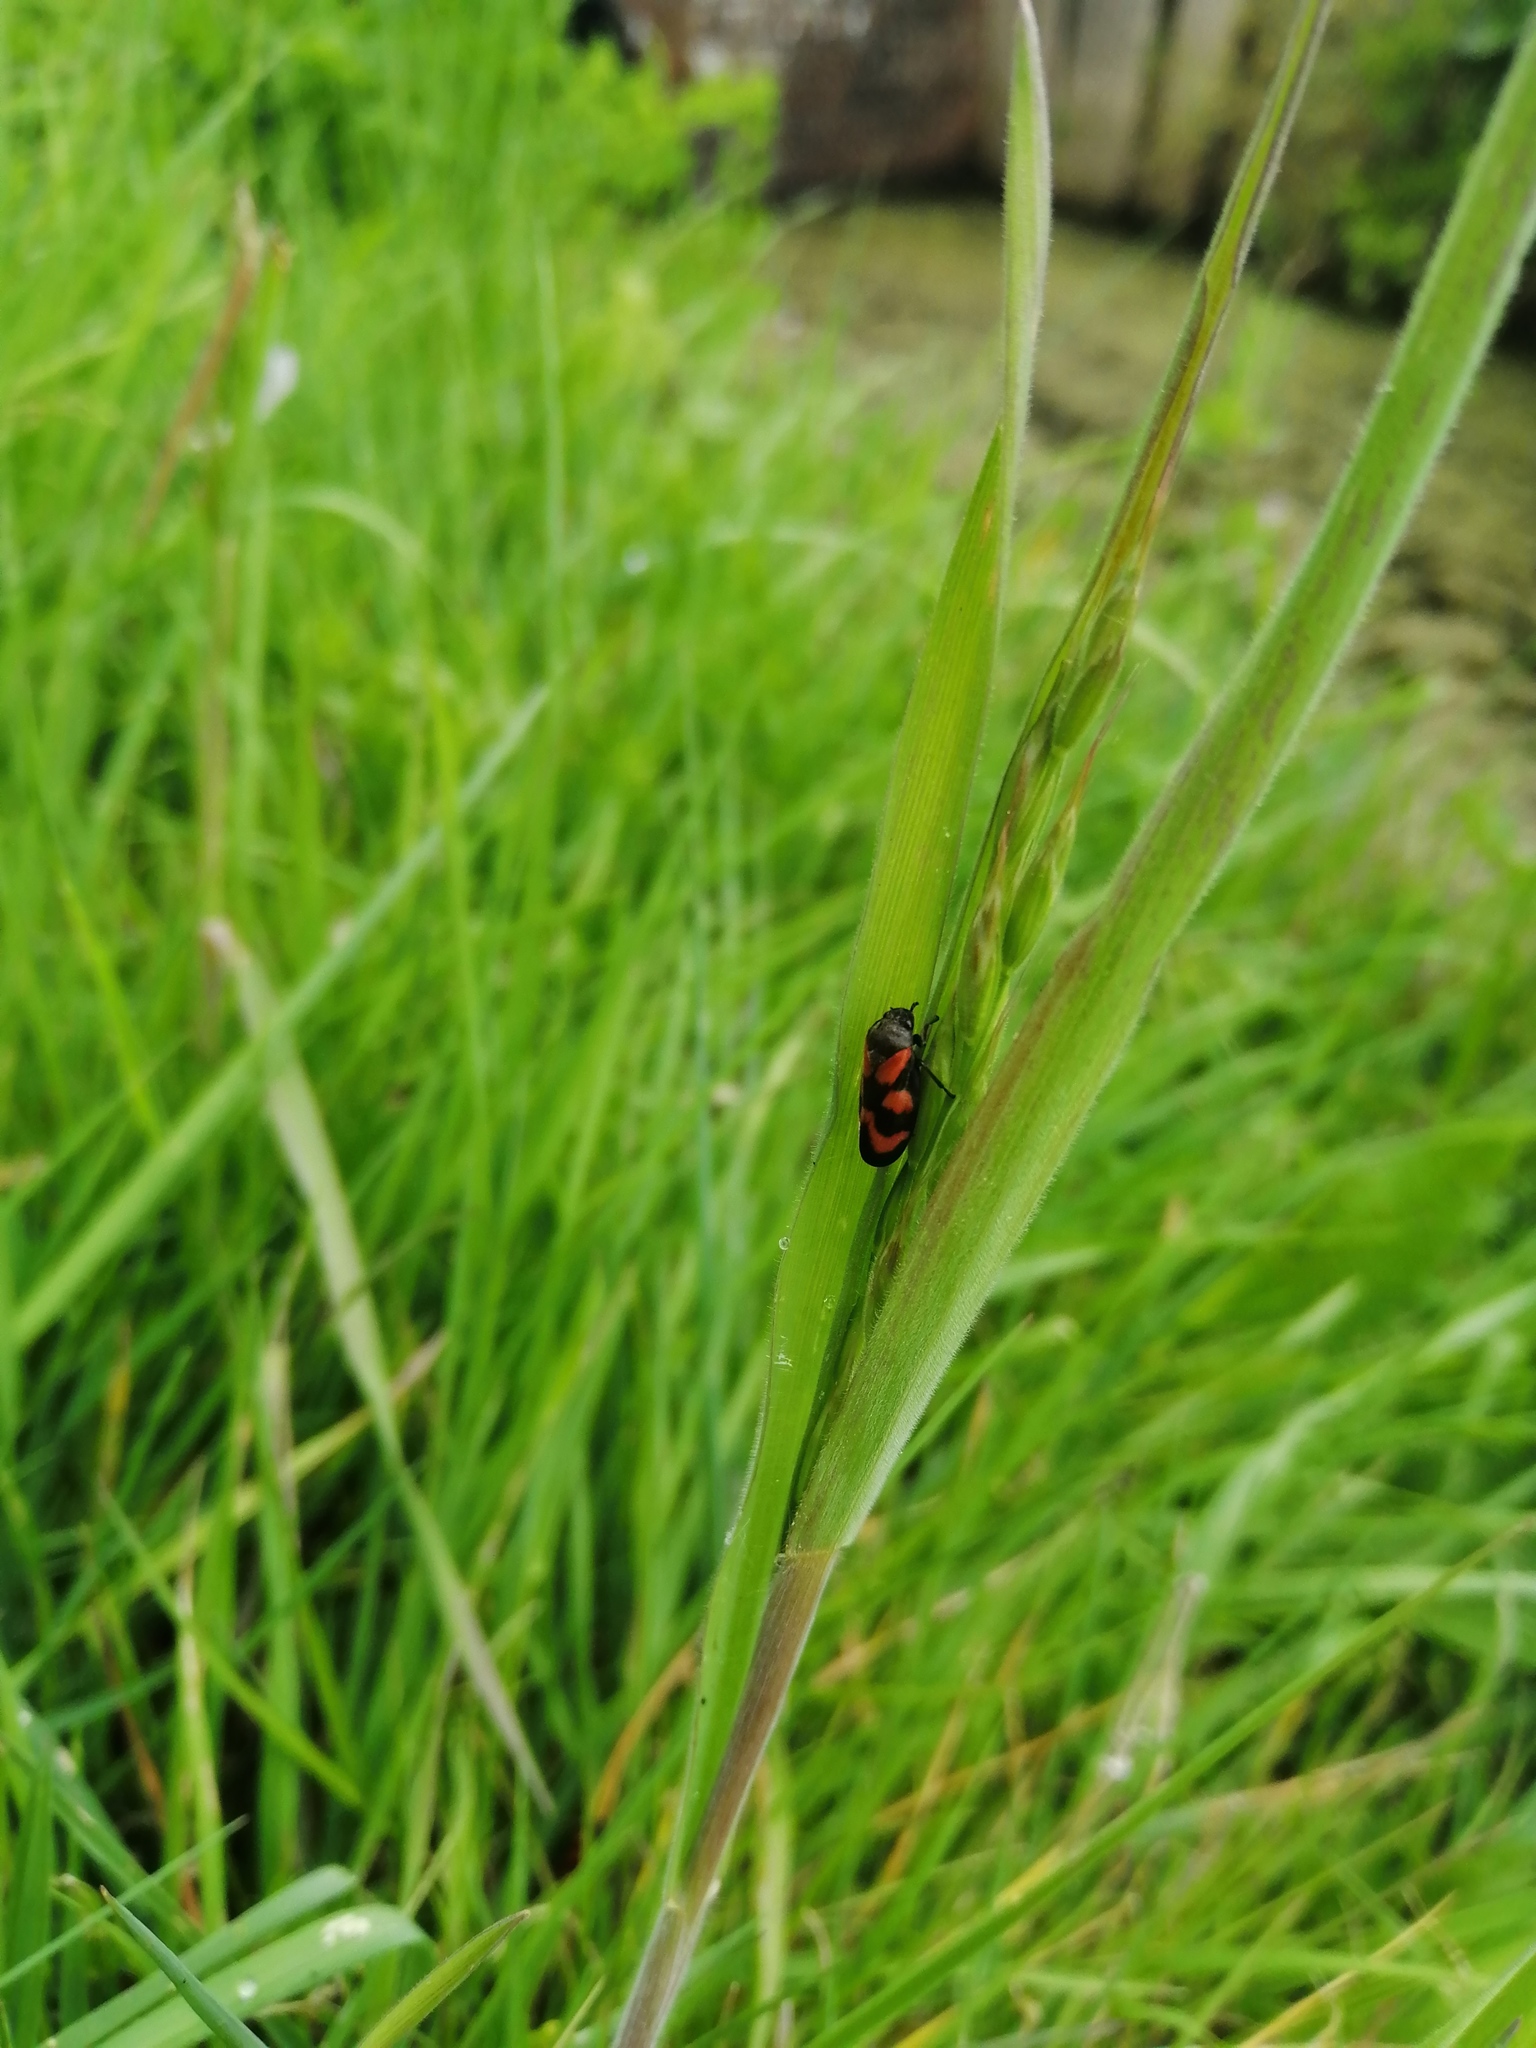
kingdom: Animalia
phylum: Arthropoda
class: Insecta
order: Hemiptera
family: Cercopidae
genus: Cercopis
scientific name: Cercopis vulnerata
